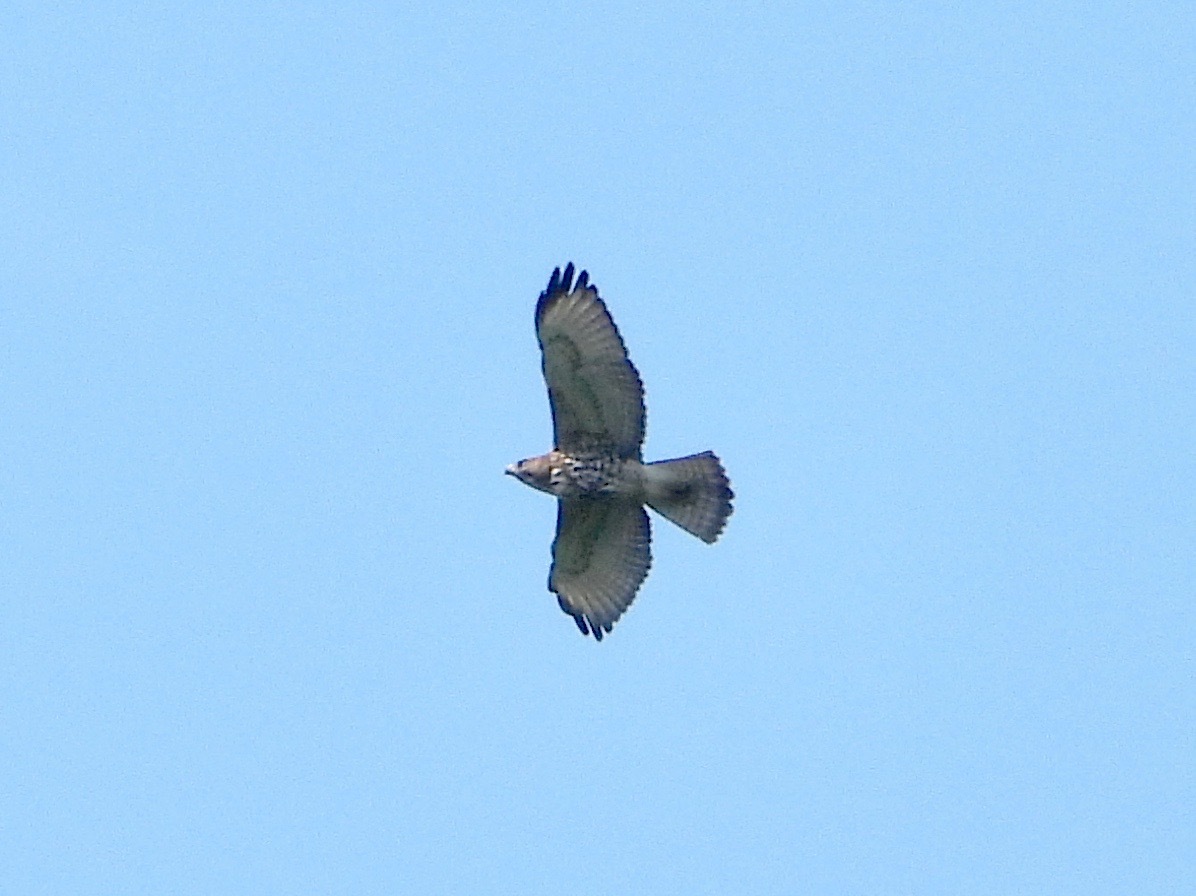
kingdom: Animalia
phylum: Chordata
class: Aves
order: Accipitriformes
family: Accipitridae
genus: Buteo
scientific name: Buteo platypterus
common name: Broad-winged hawk
